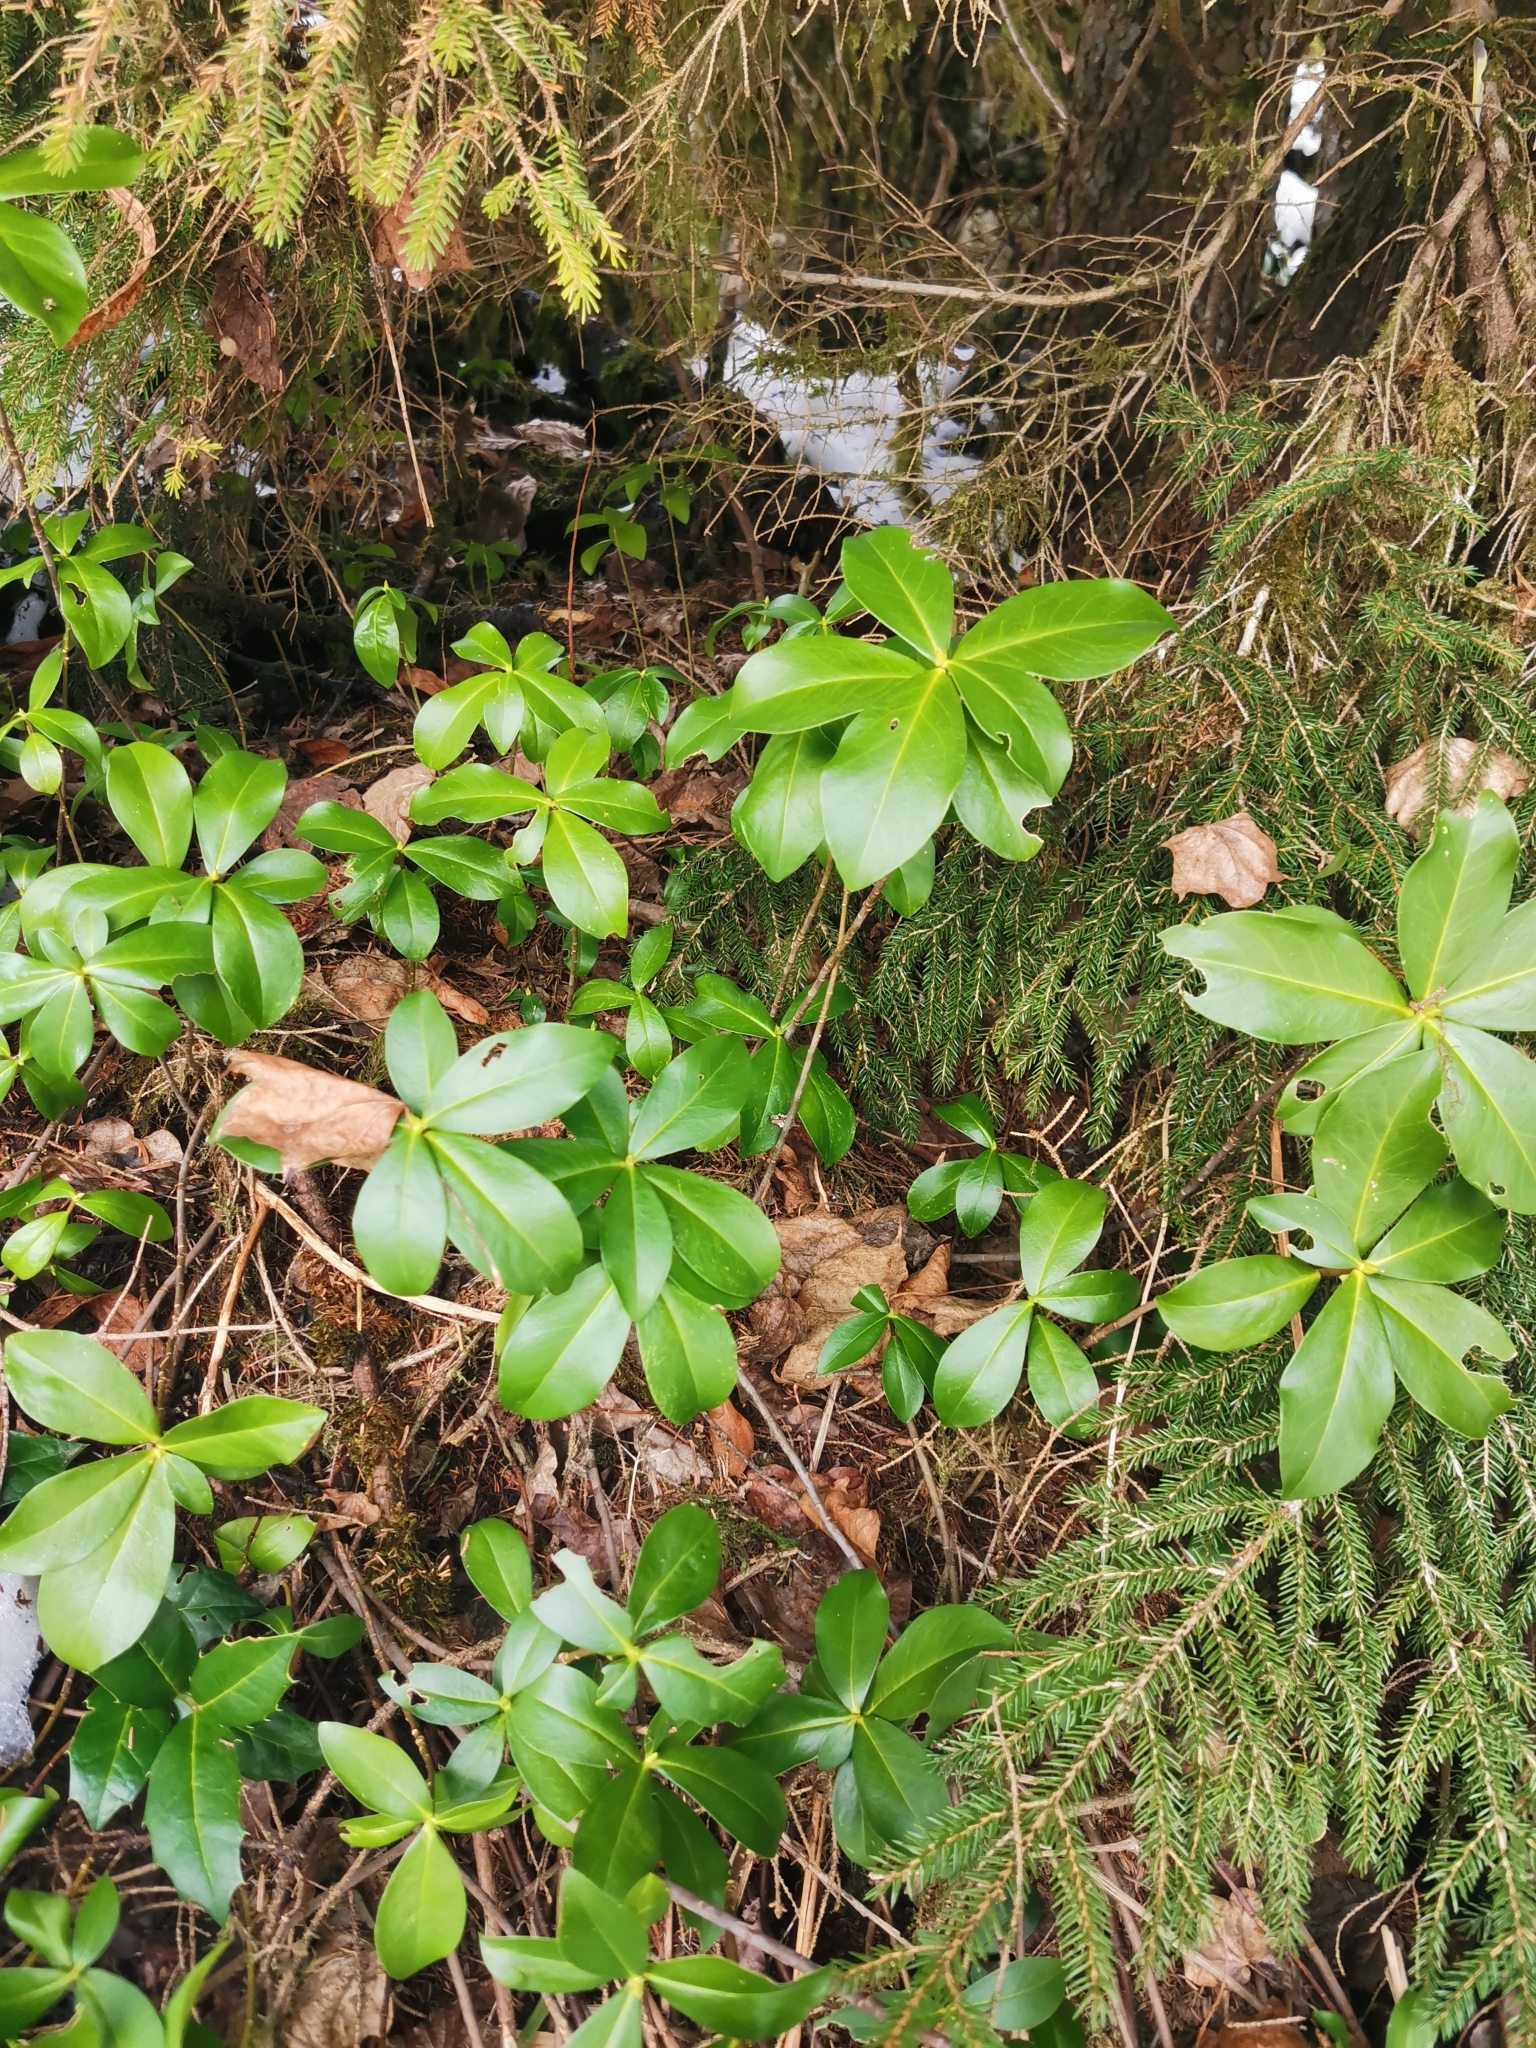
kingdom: Plantae
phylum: Tracheophyta
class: Magnoliopsida
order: Malvales
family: Thymelaeaceae
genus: Daphne
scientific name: Daphne pontica
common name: Twin-flower daphne
